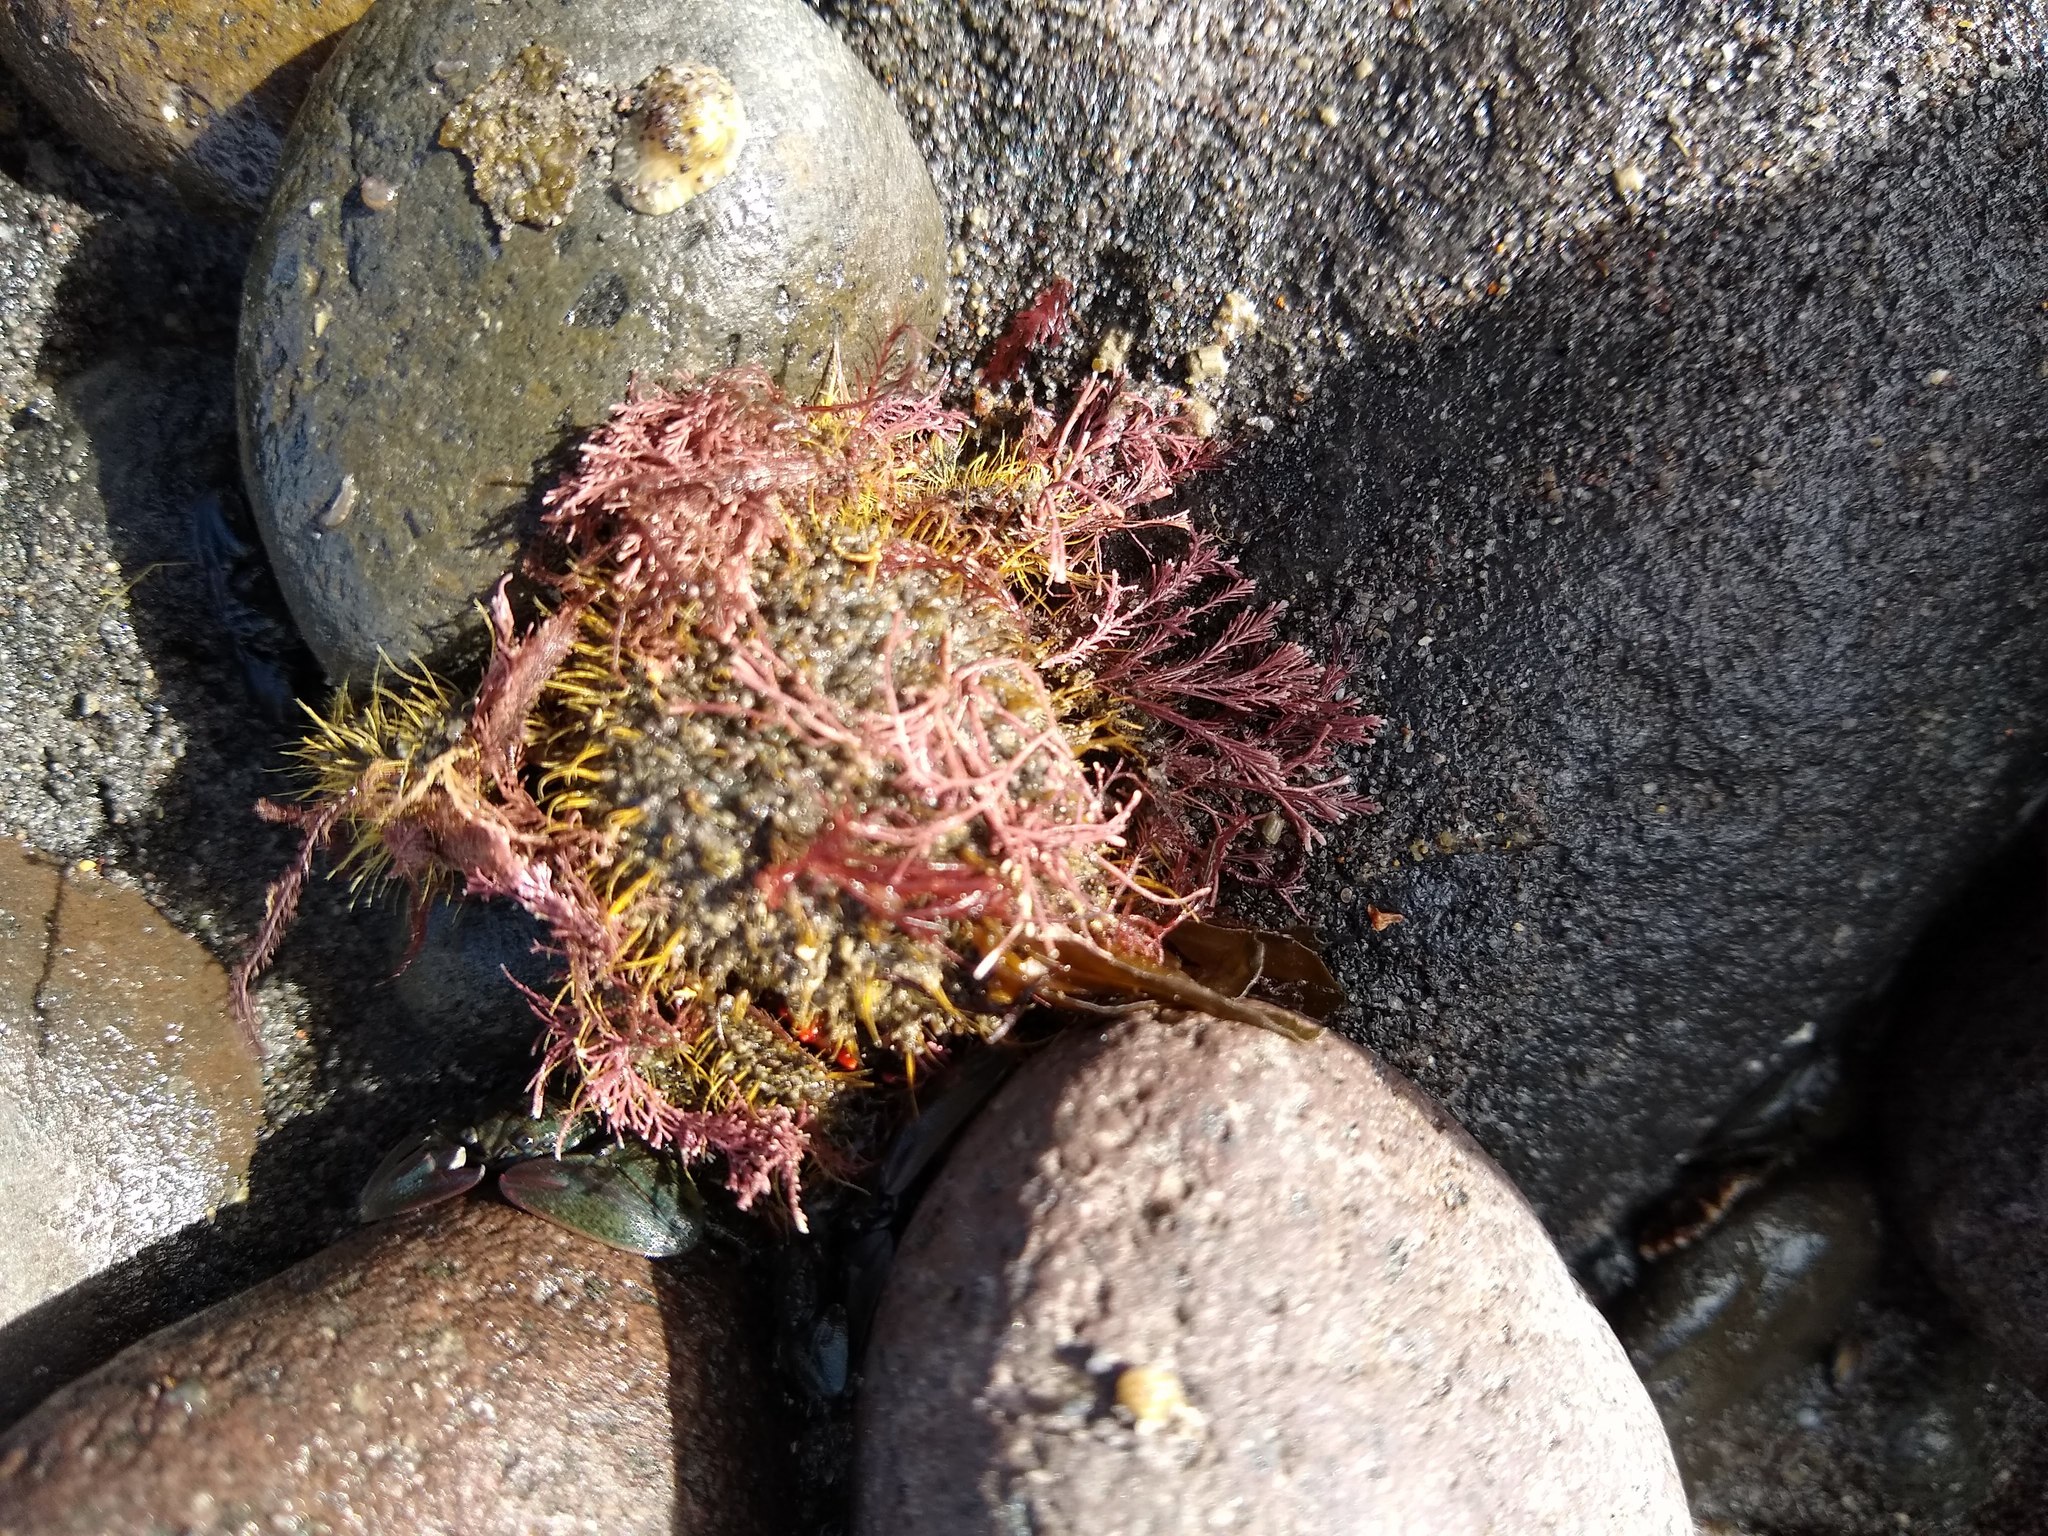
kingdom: Animalia
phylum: Arthropoda
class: Malacostraca
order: Decapoda
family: Majidae
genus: Notomithrax
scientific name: Notomithrax ursus
